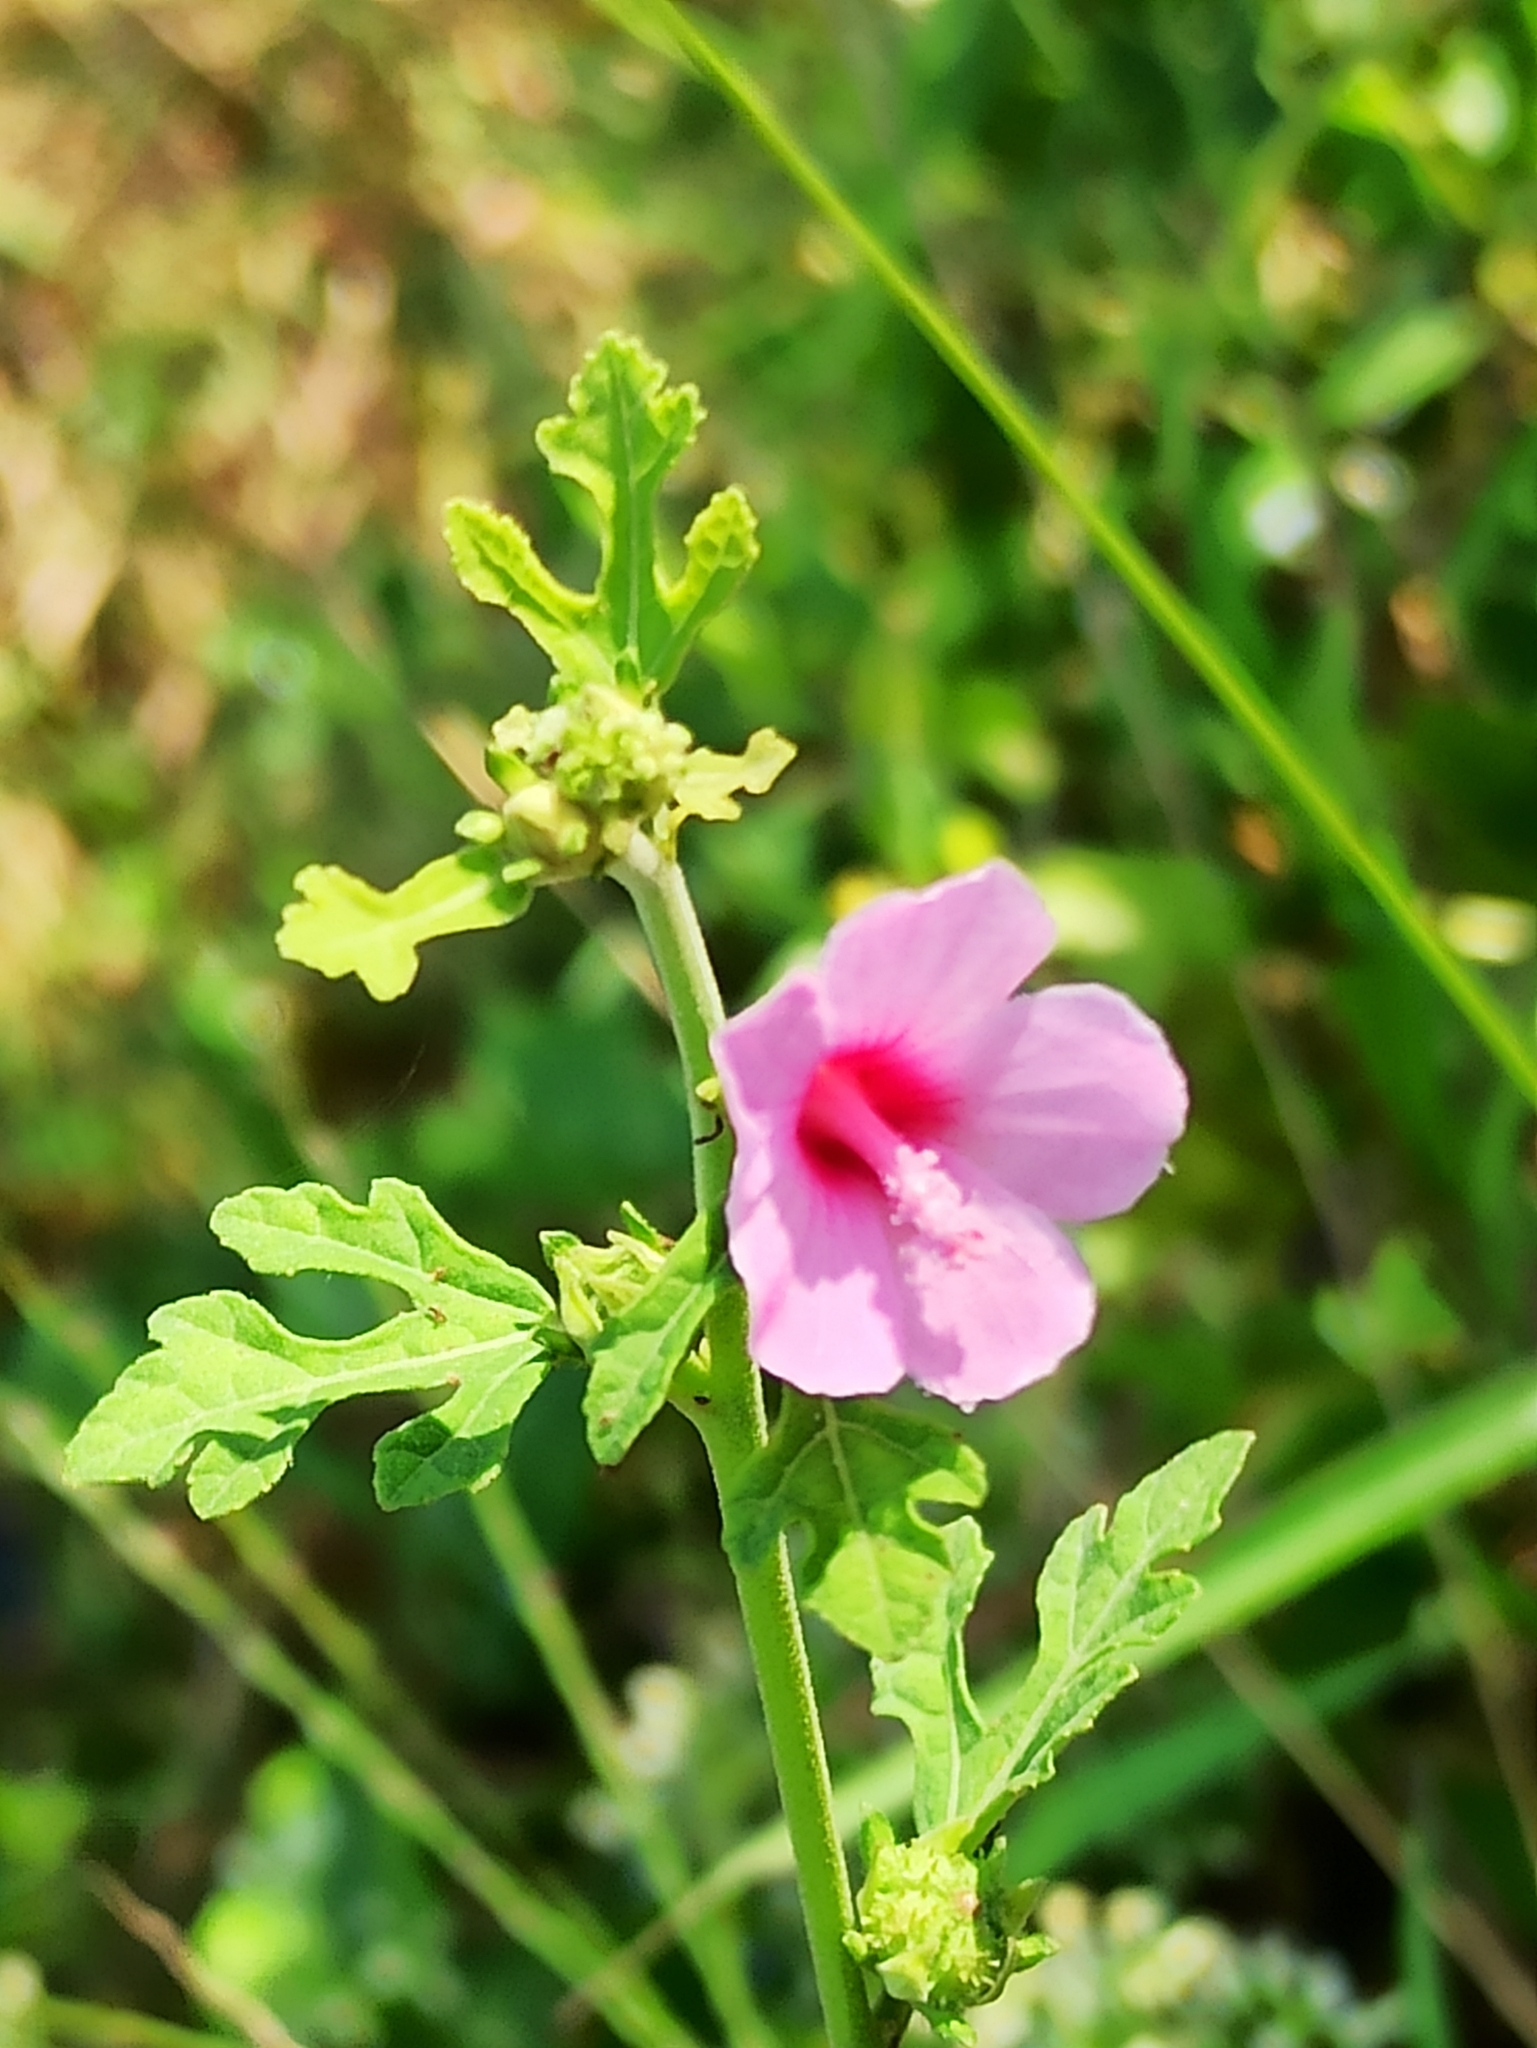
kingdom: Plantae
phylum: Tracheophyta
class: Magnoliopsida
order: Malvales
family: Malvaceae
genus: Urena
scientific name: Urena procumbens
